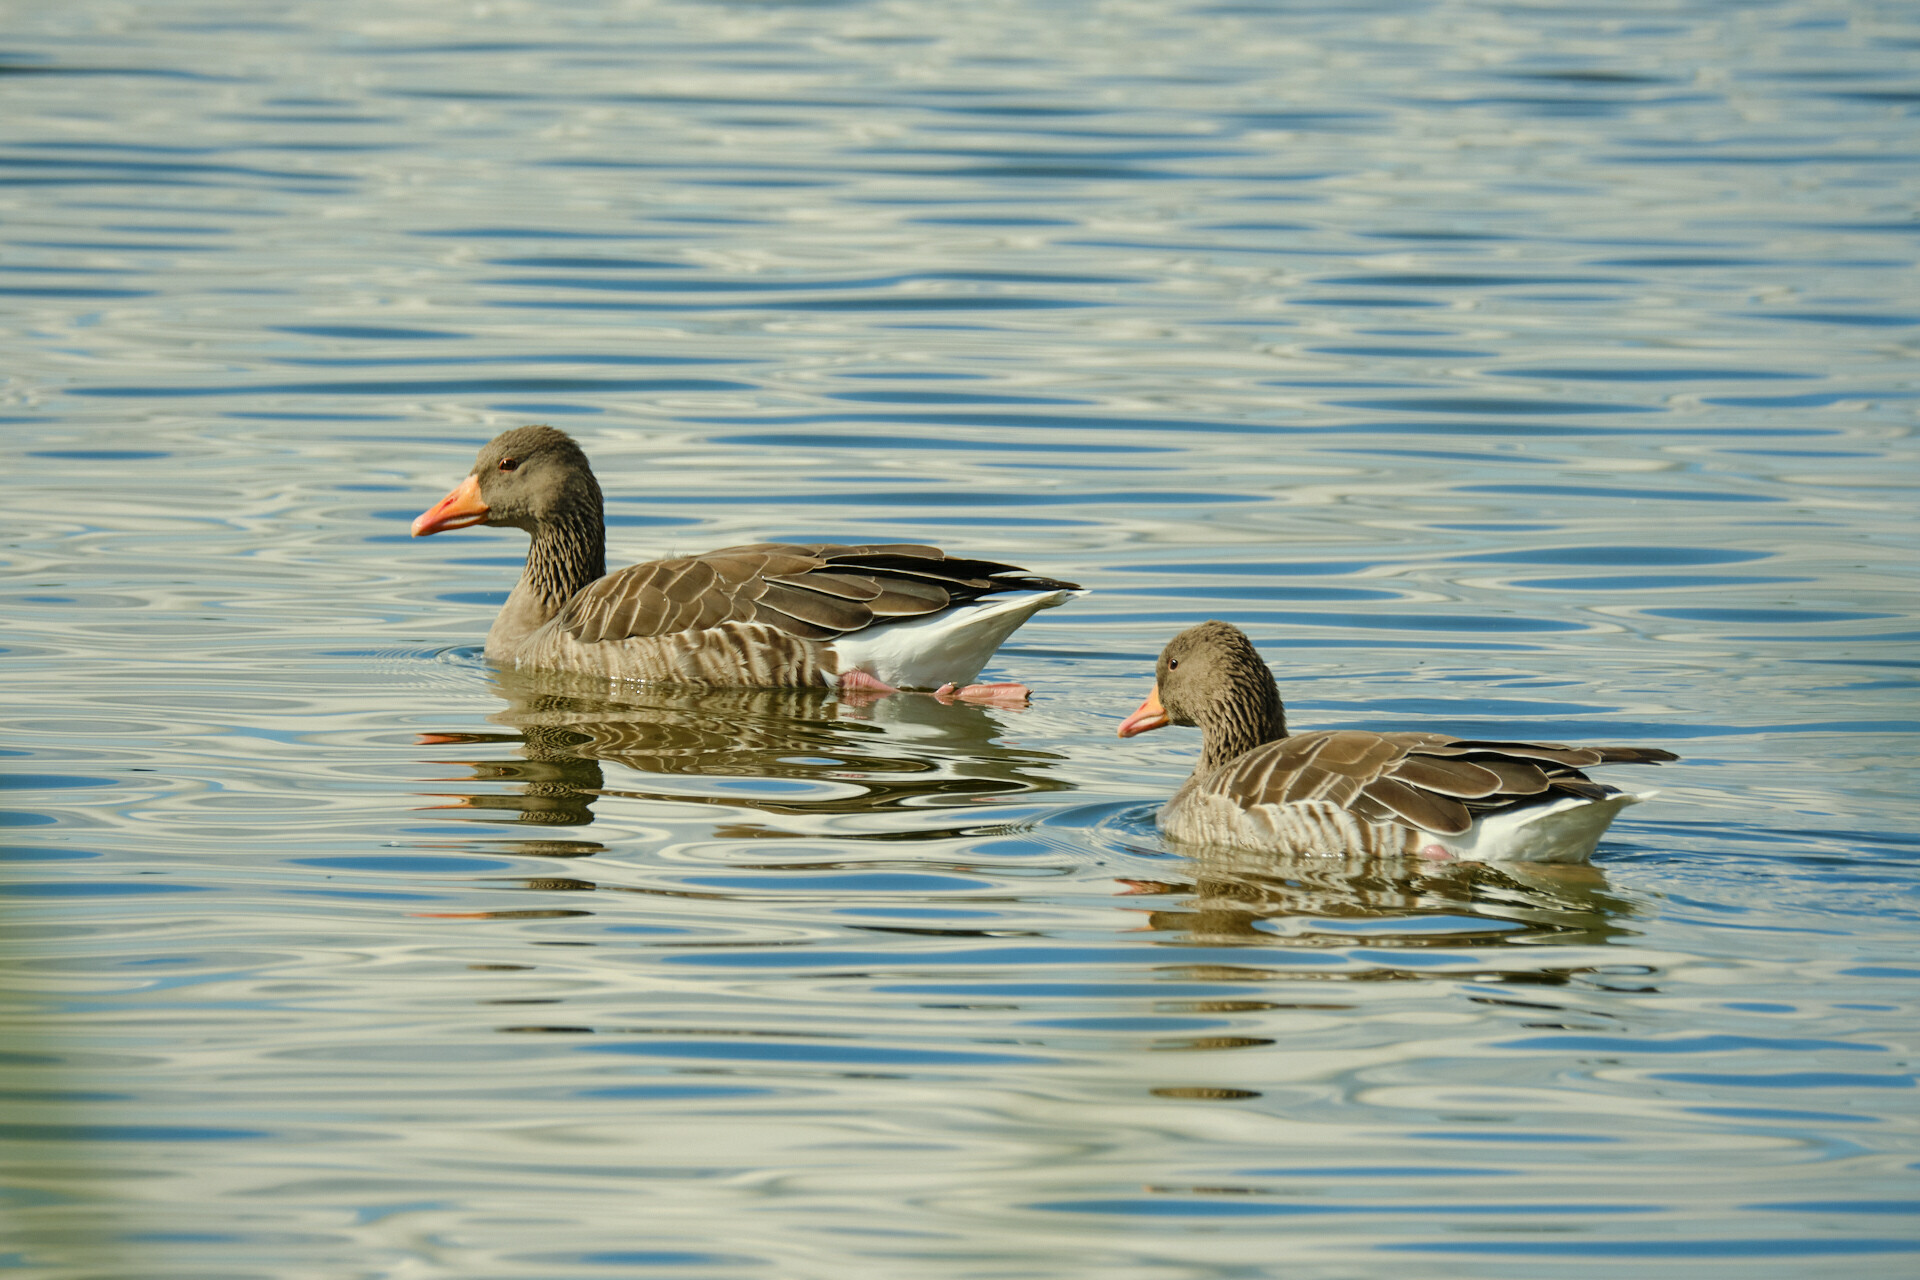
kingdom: Animalia
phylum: Chordata
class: Aves
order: Anseriformes
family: Anatidae
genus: Anser
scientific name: Anser anser
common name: Greylag goose
